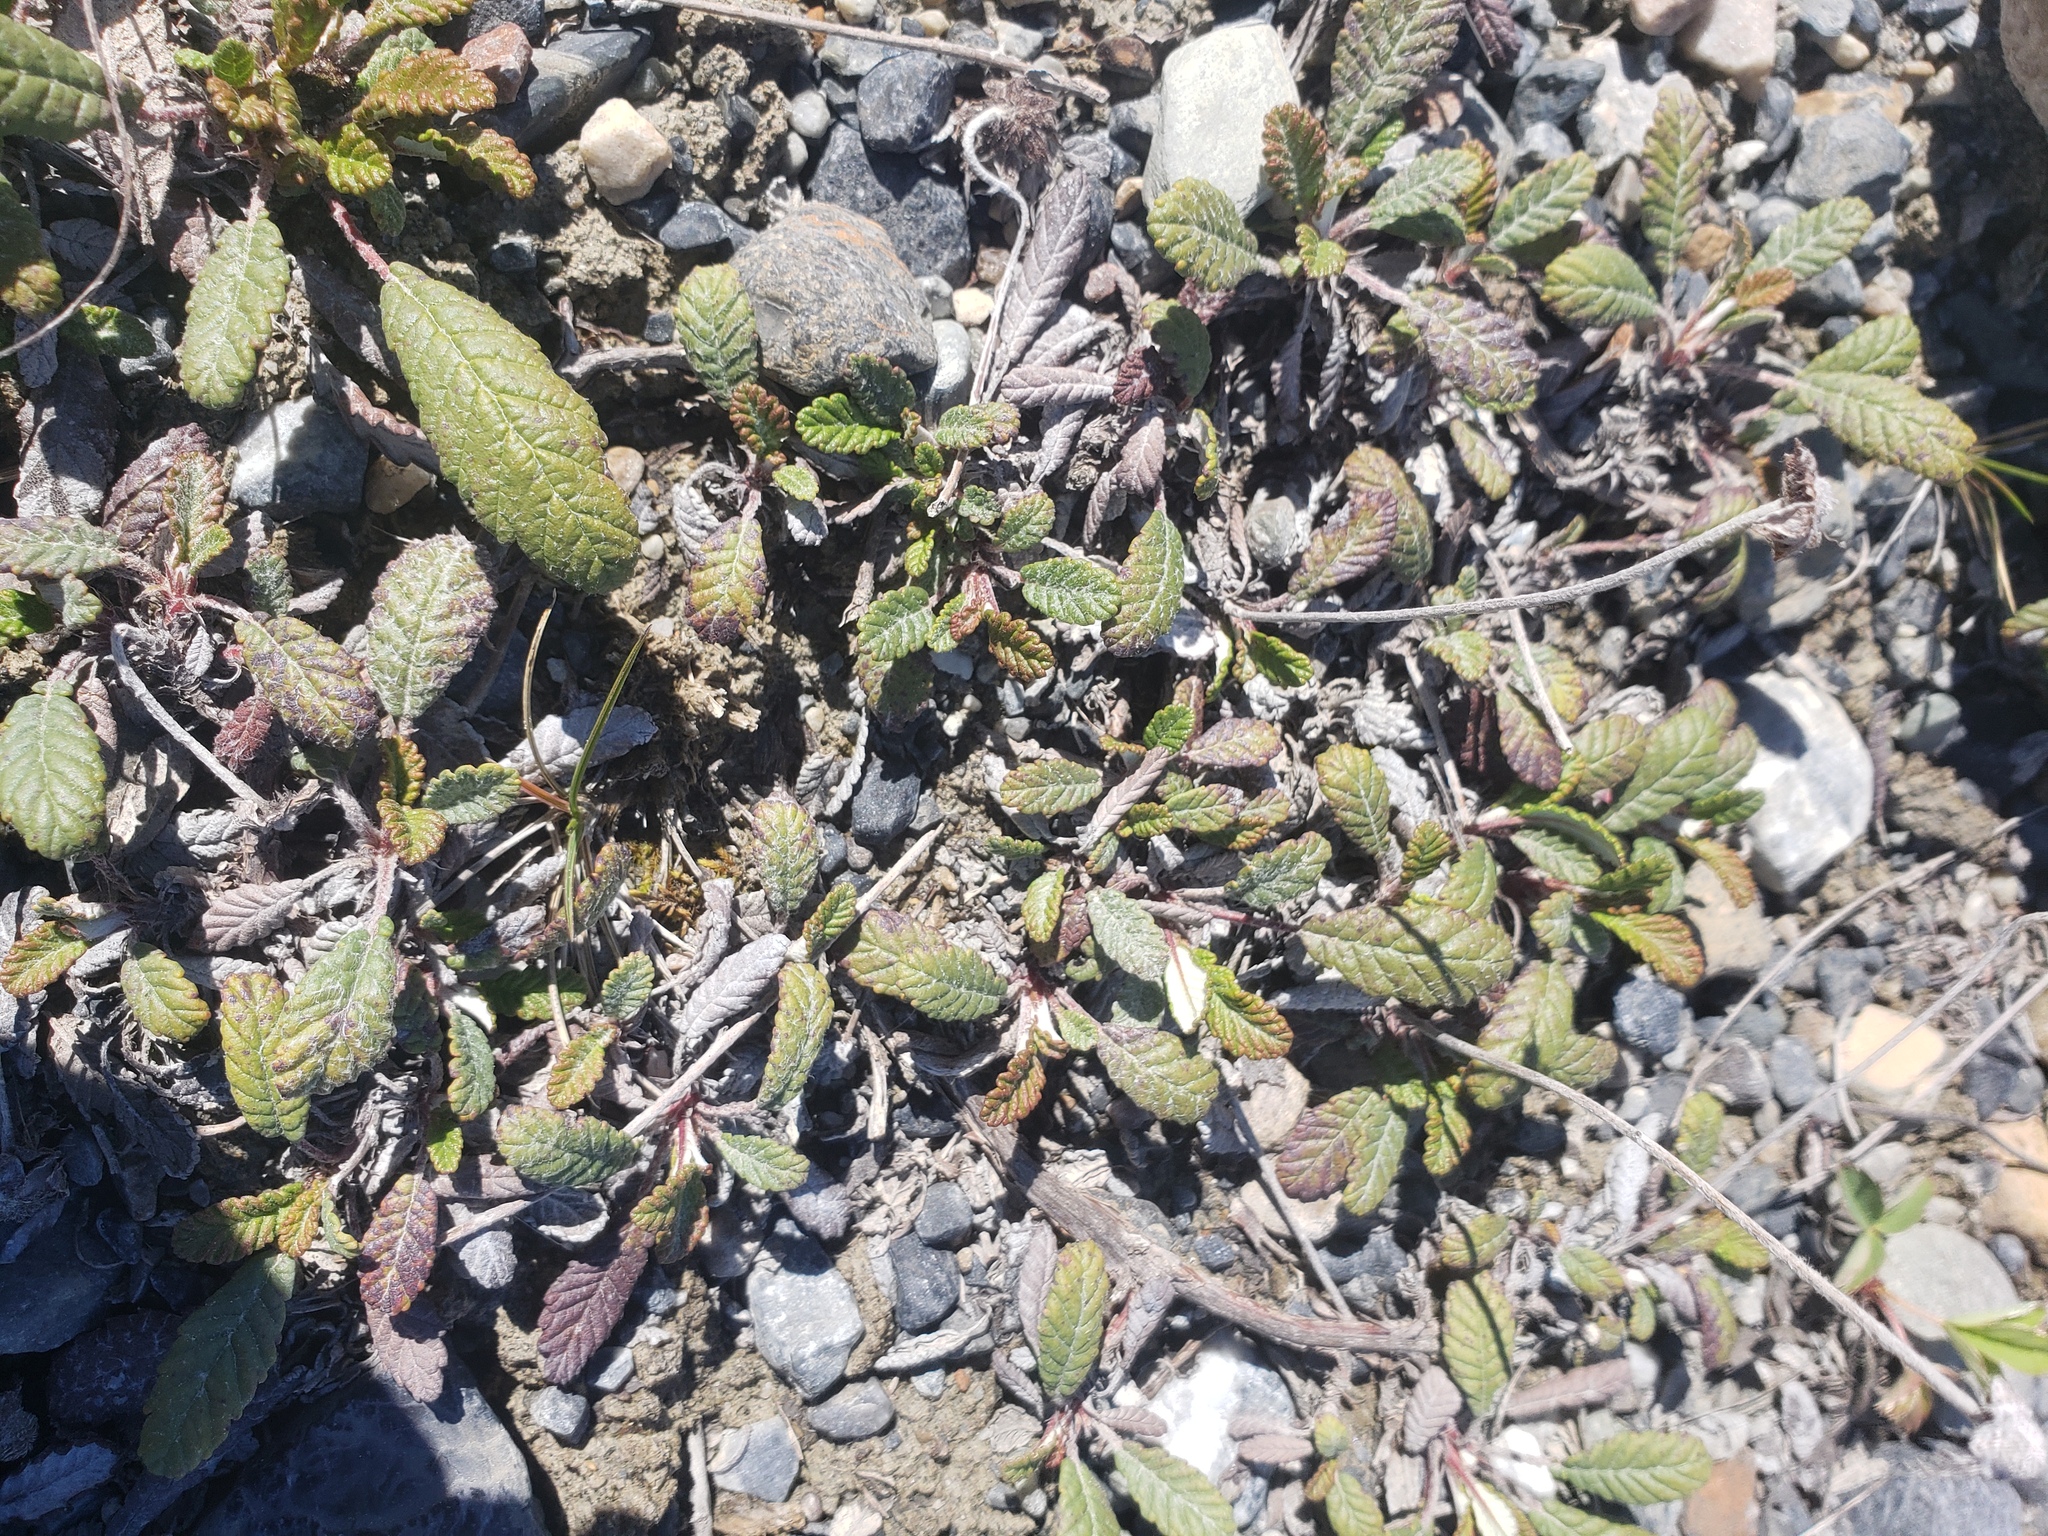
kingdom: Plantae
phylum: Tracheophyta
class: Magnoliopsida
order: Rosales
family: Rosaceae
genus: Dryas
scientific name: Dryas drummondii
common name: Drummond's dryad
